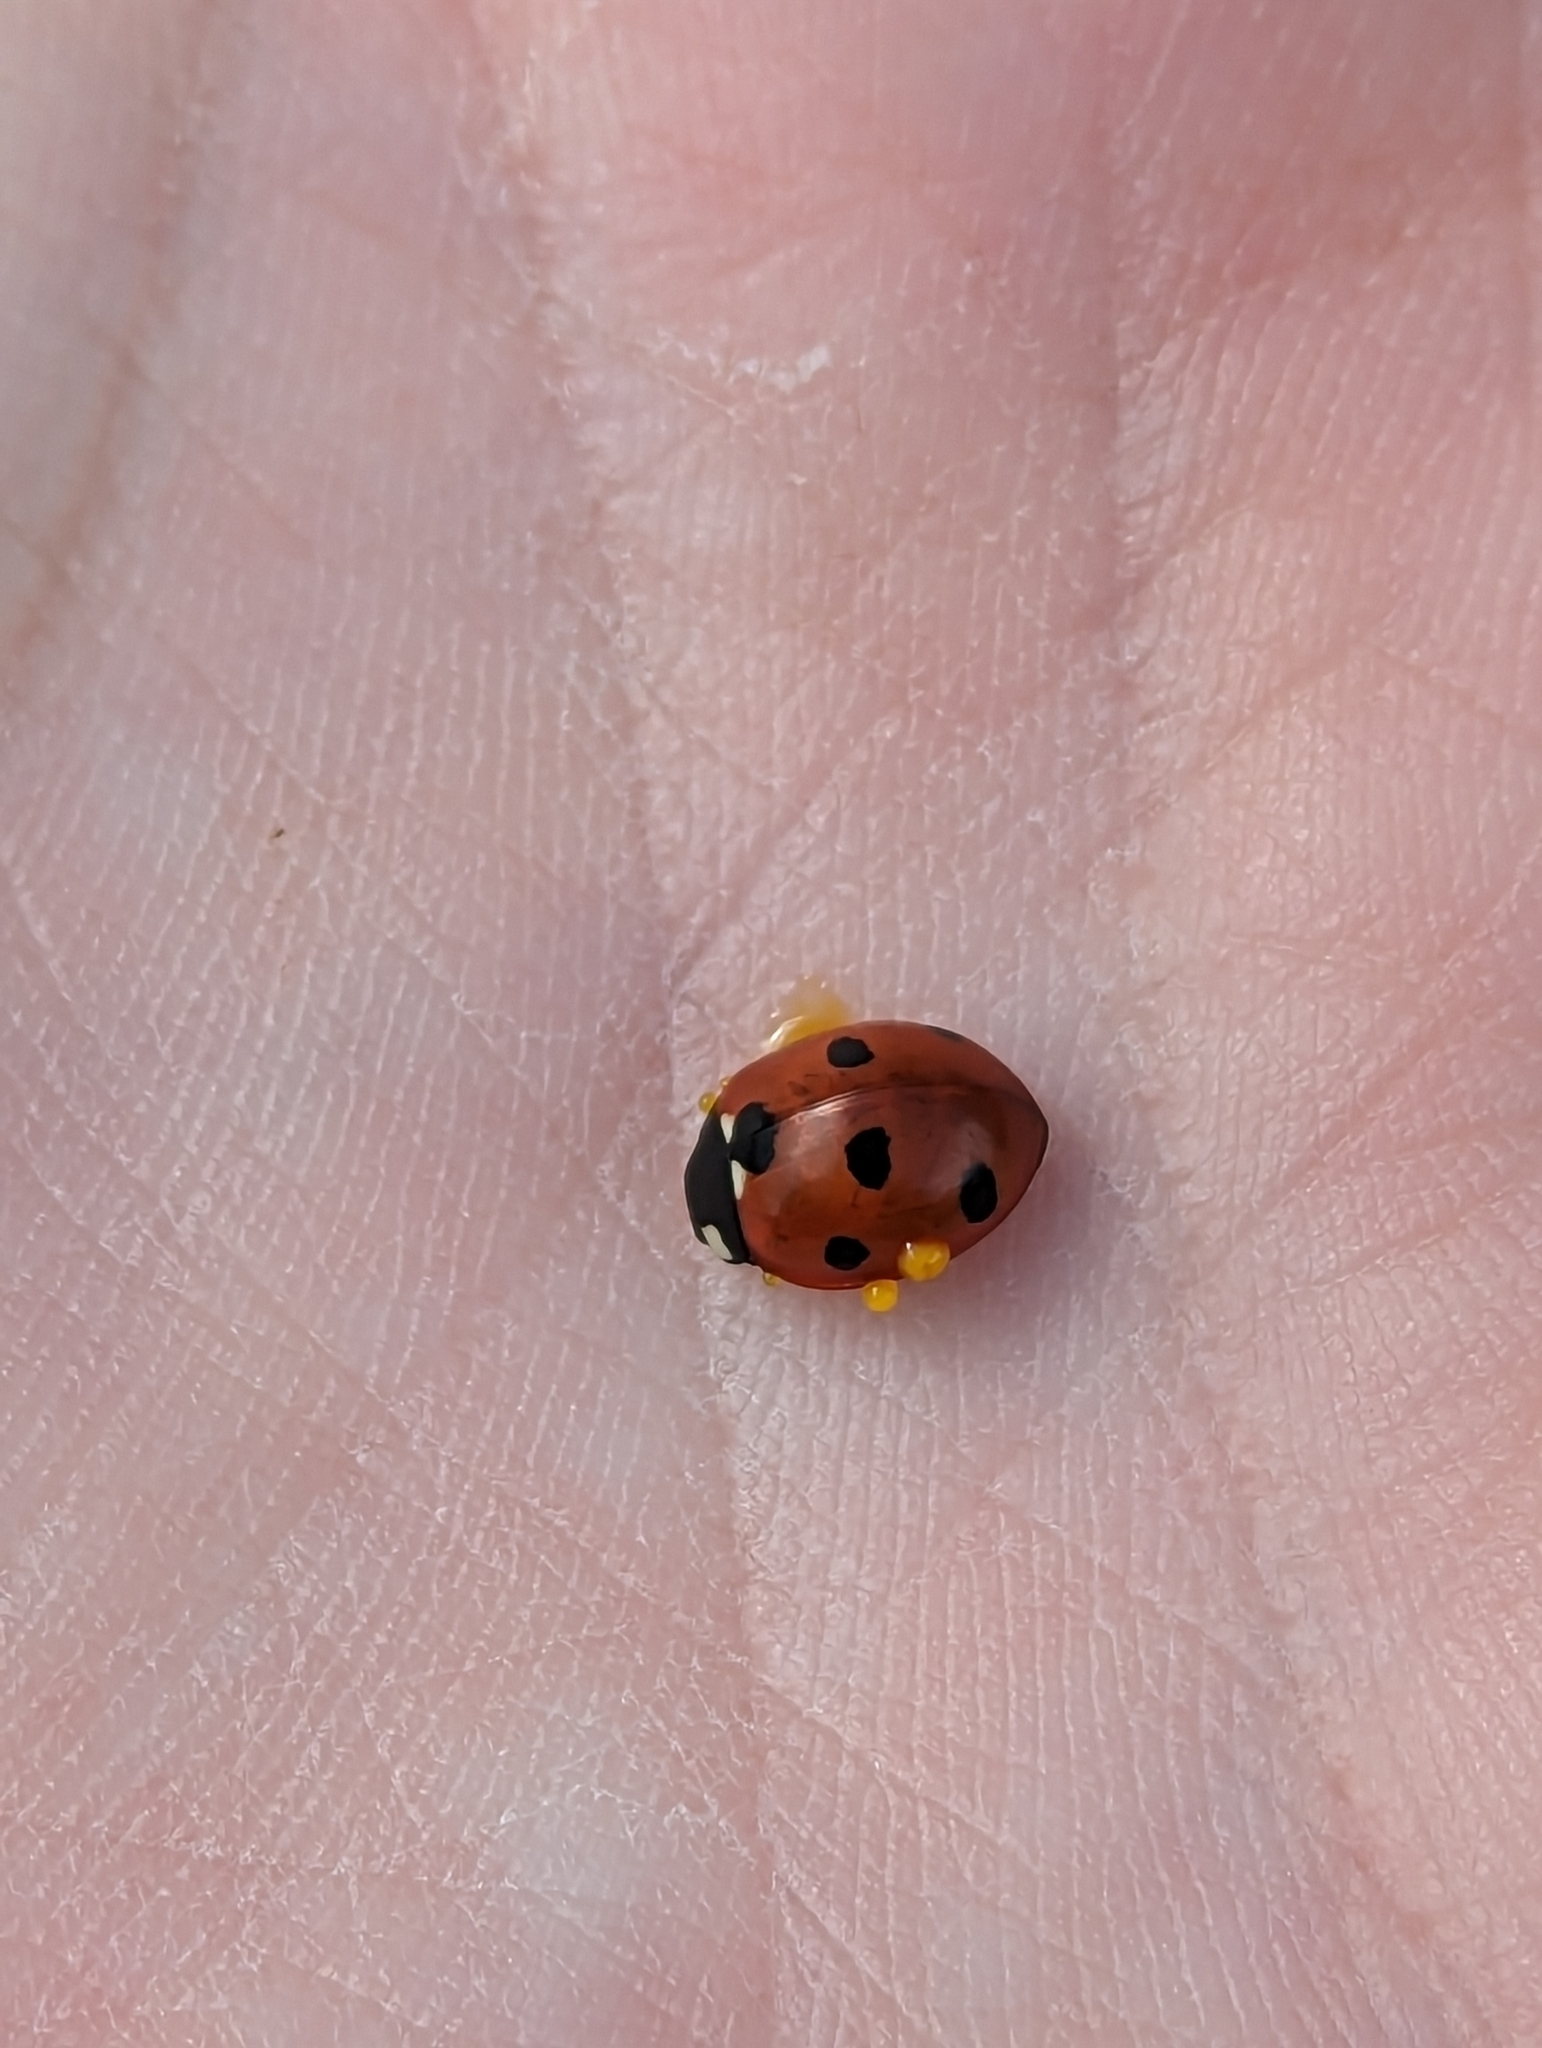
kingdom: Animalia
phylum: Arthropoda
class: Insecta
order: Coleoptera
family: Coccinellidae
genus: Coccinella
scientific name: Coccinella septempunctata
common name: Sevenspotted lady beetle
